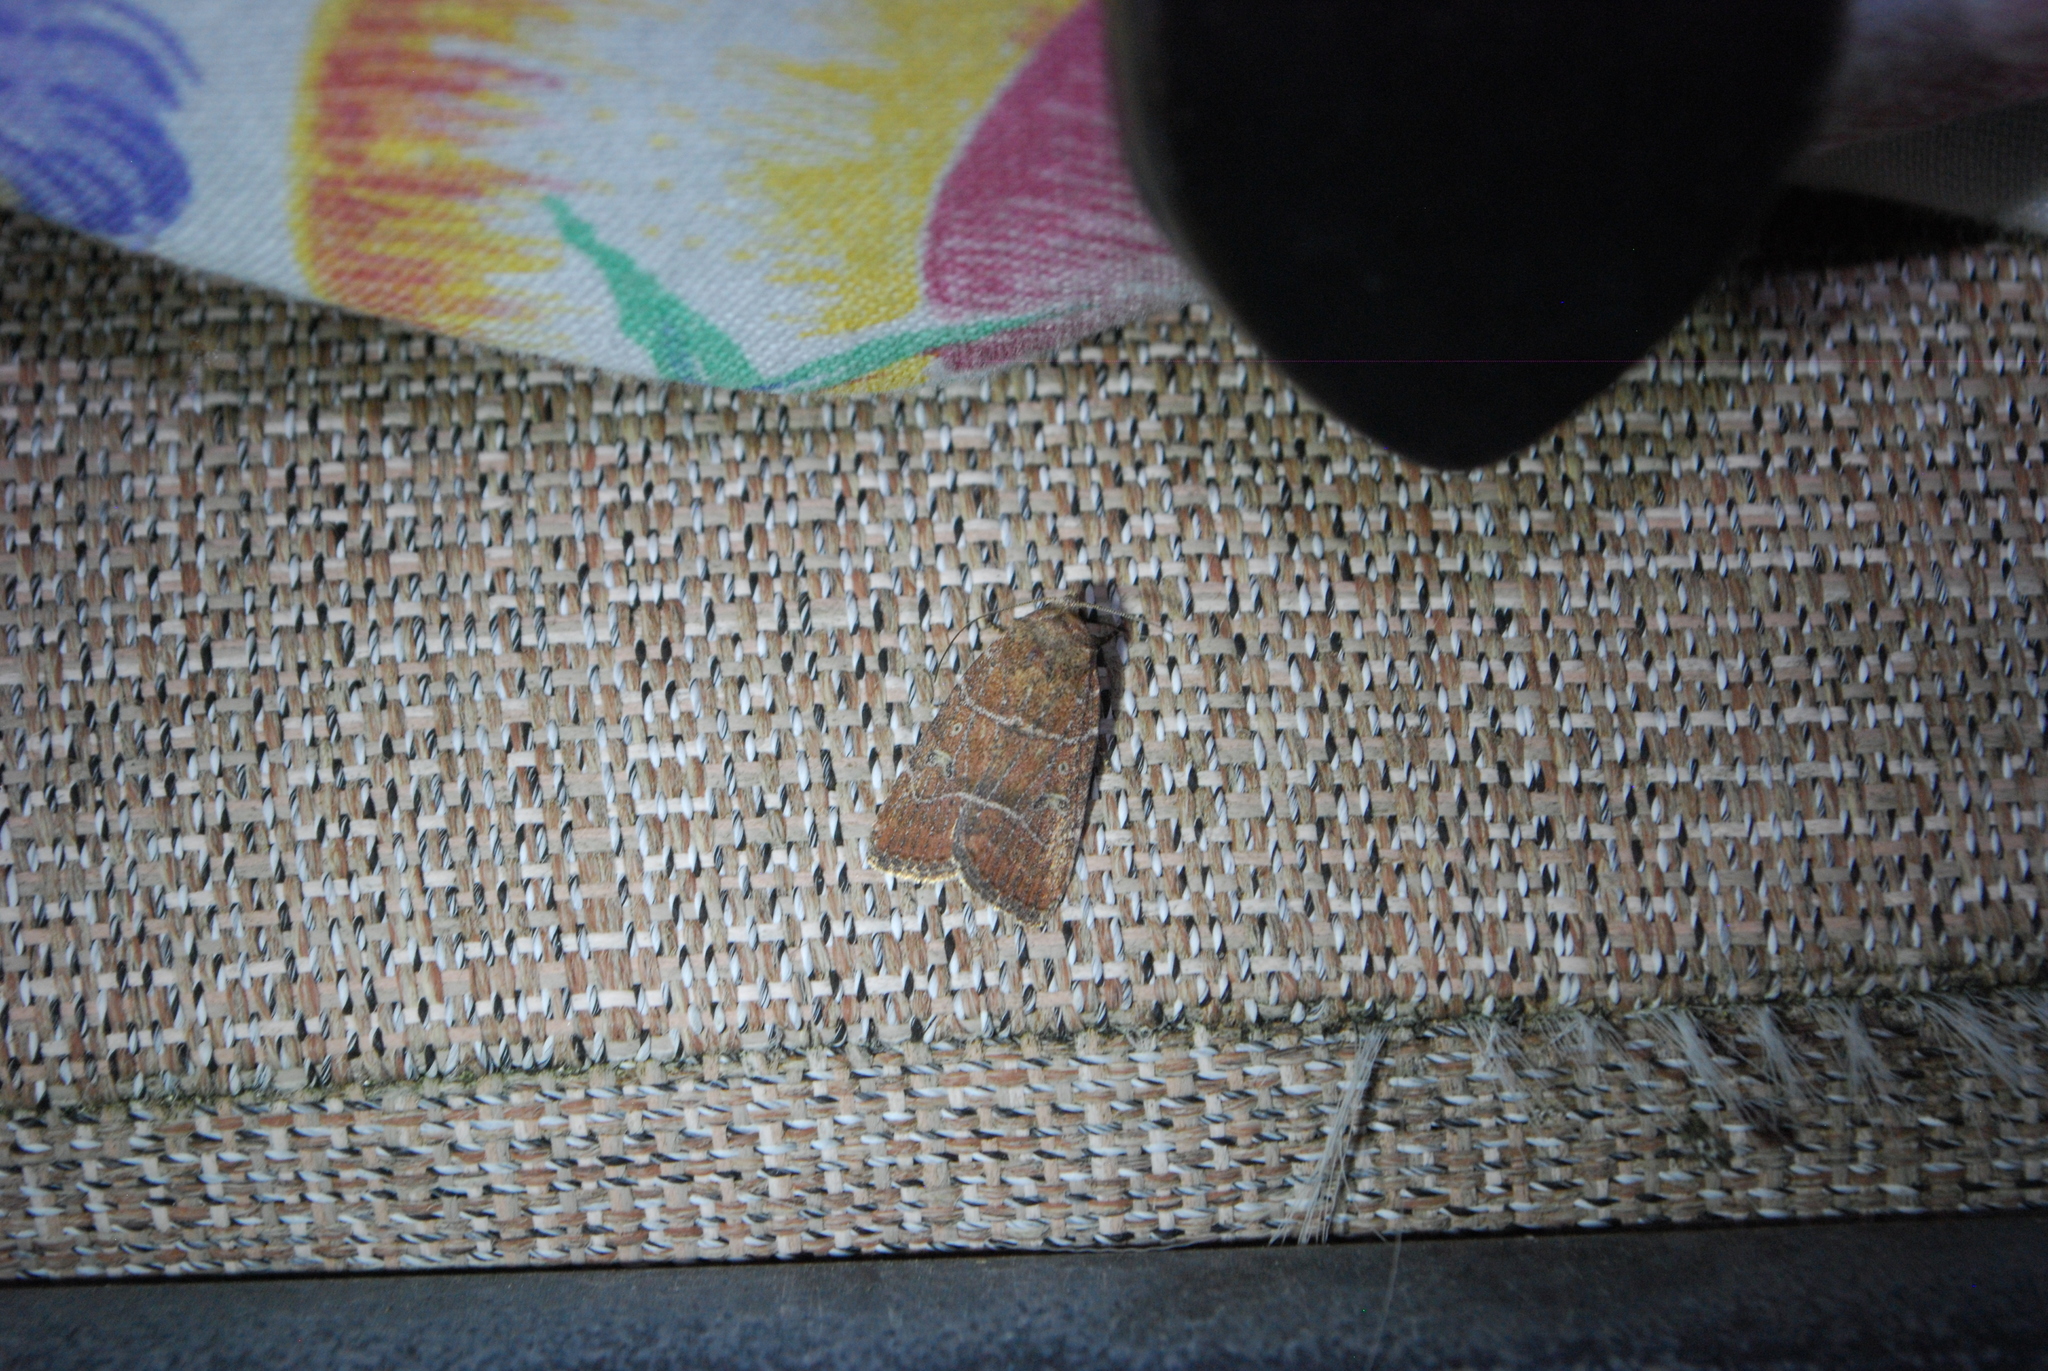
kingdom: Animalia
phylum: Arthropoda
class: Insecta
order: Lepidoptera
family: Noctuidae
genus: Elaphria
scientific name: Elaphria grata
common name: Grateful midget moth
